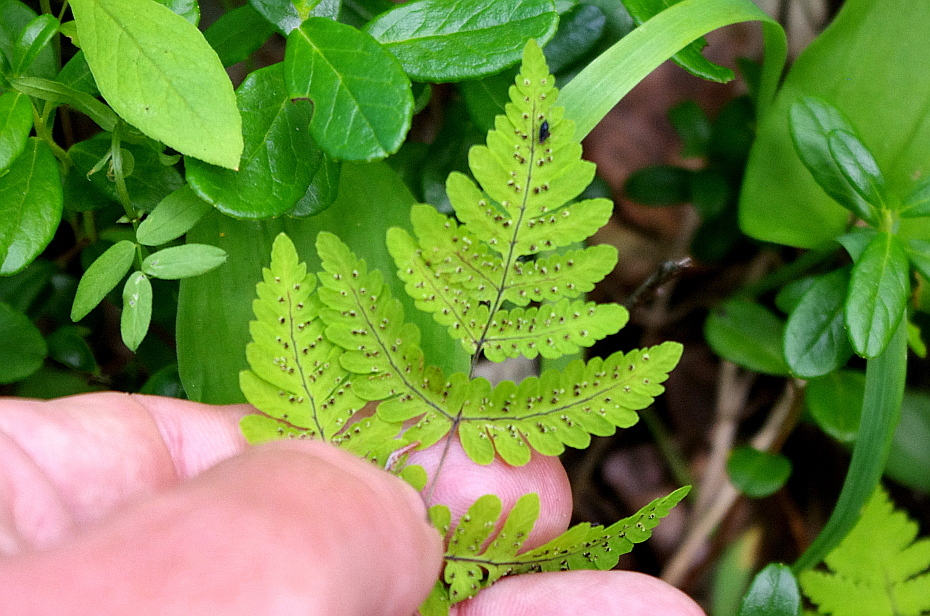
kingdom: Plantae
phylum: Tracheophyta
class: Polypodiopsida
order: Polypodiales
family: Cystopteridaceae
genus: Gymnocarpium
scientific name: Gymnocarpium dryopteris
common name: Oak fern
